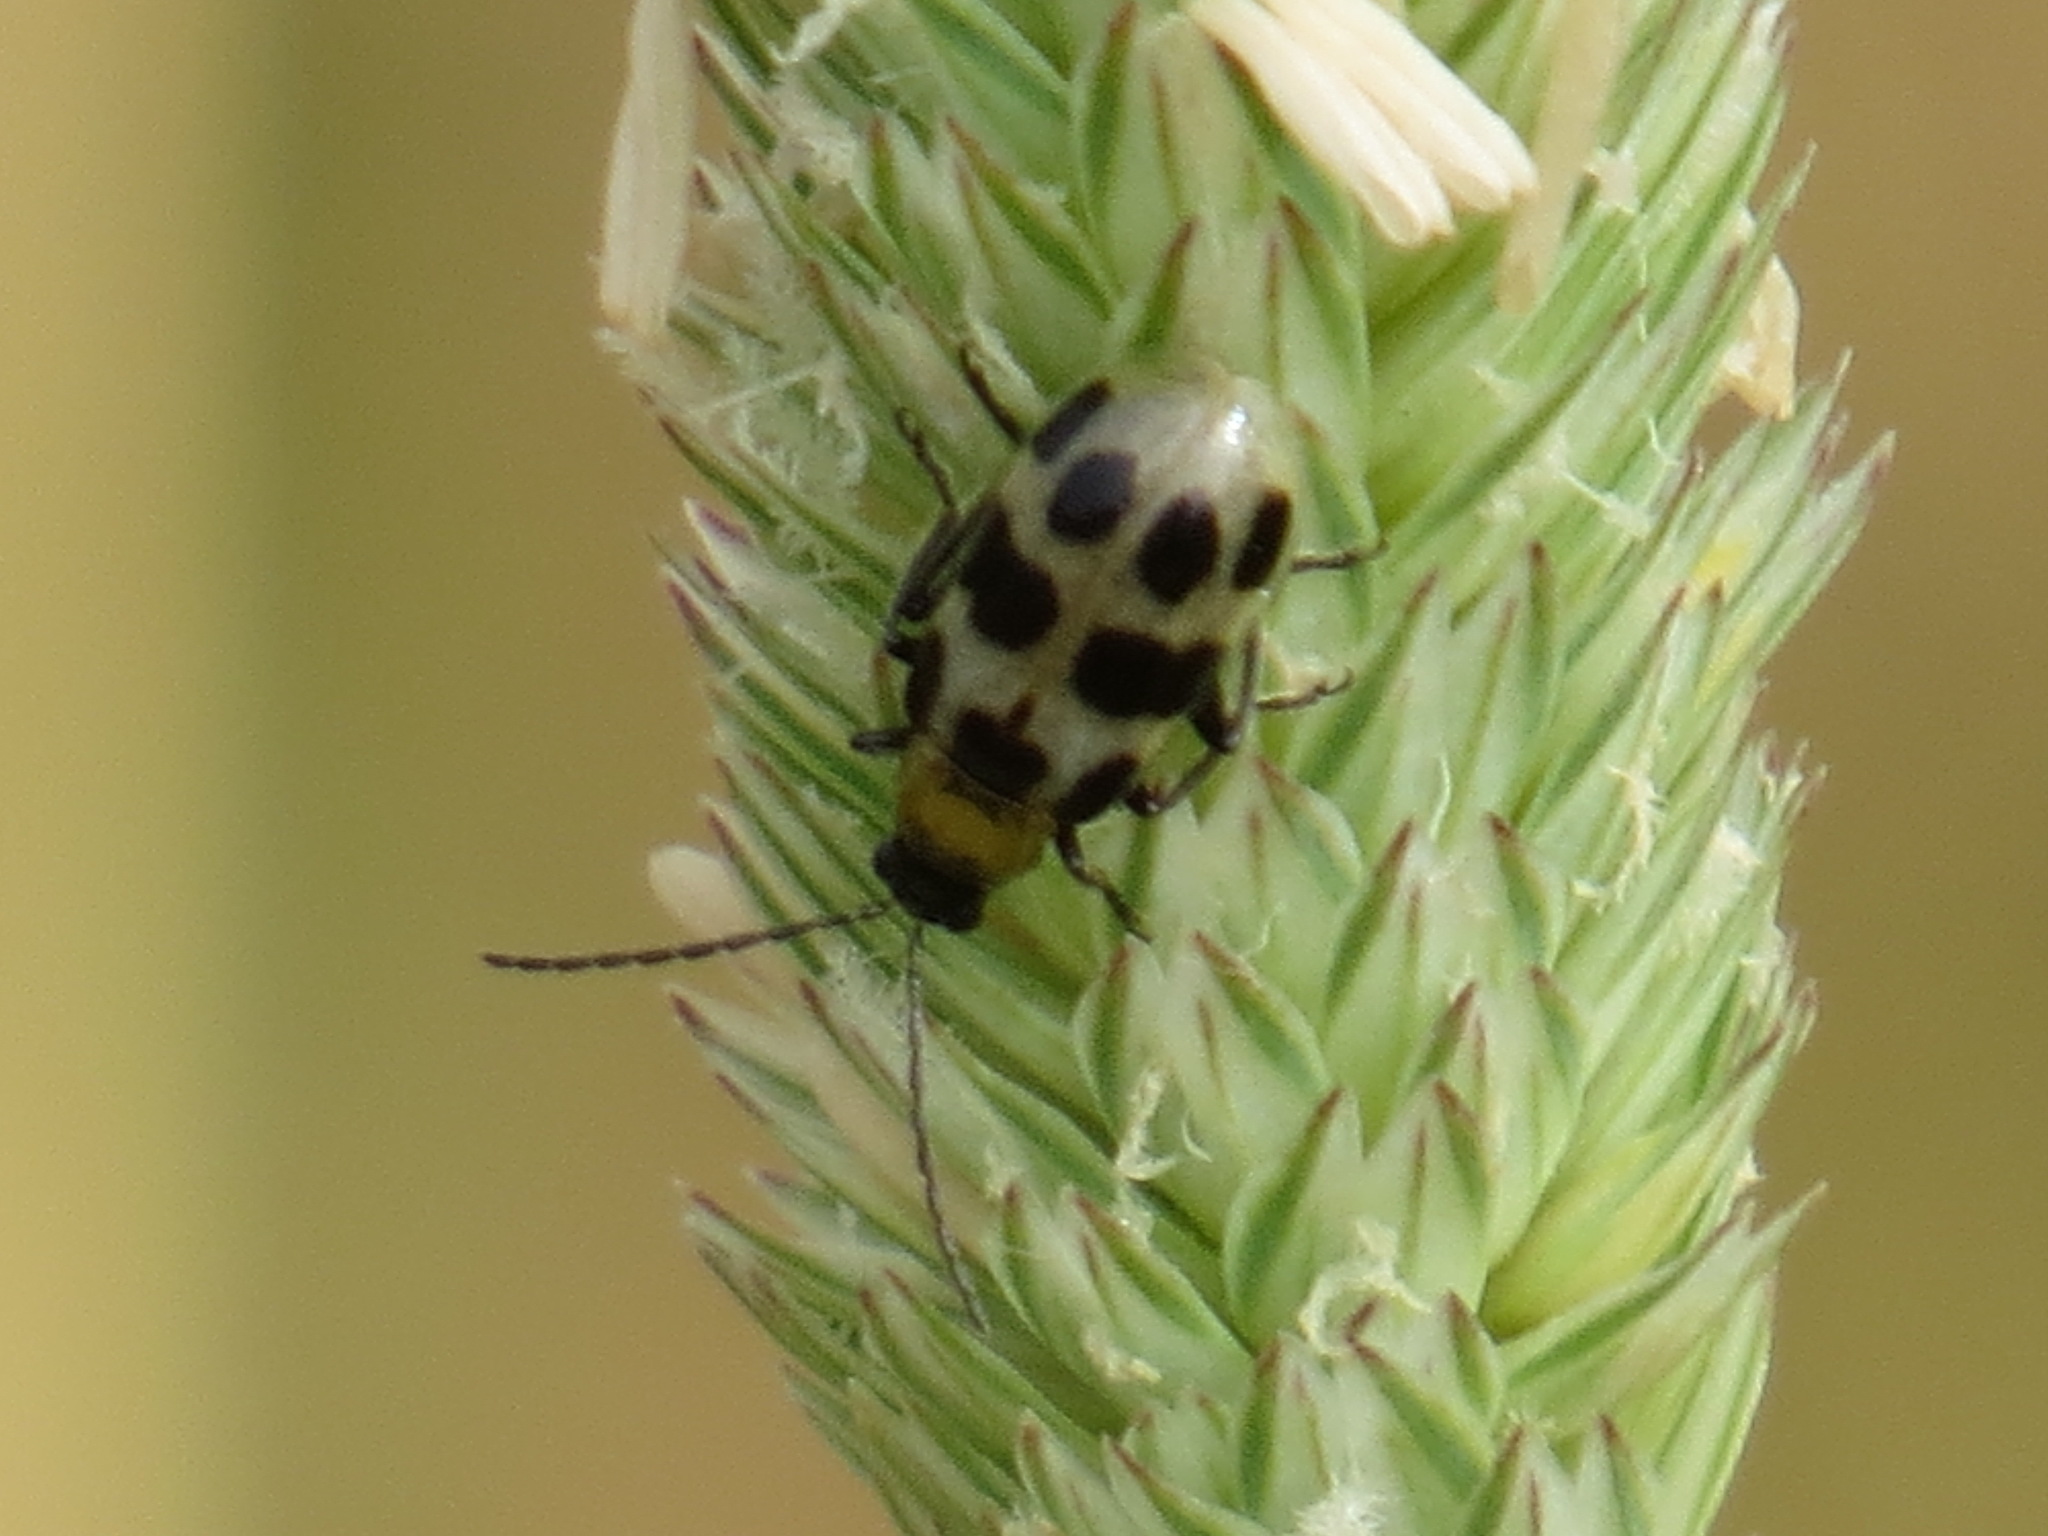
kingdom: Animalia
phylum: Arthropoda
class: Insecta
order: Coleoptera
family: Chrysomelidae
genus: Diabrotica
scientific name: Diabrotica undecimpunctata
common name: Spotted cucumber beetle
